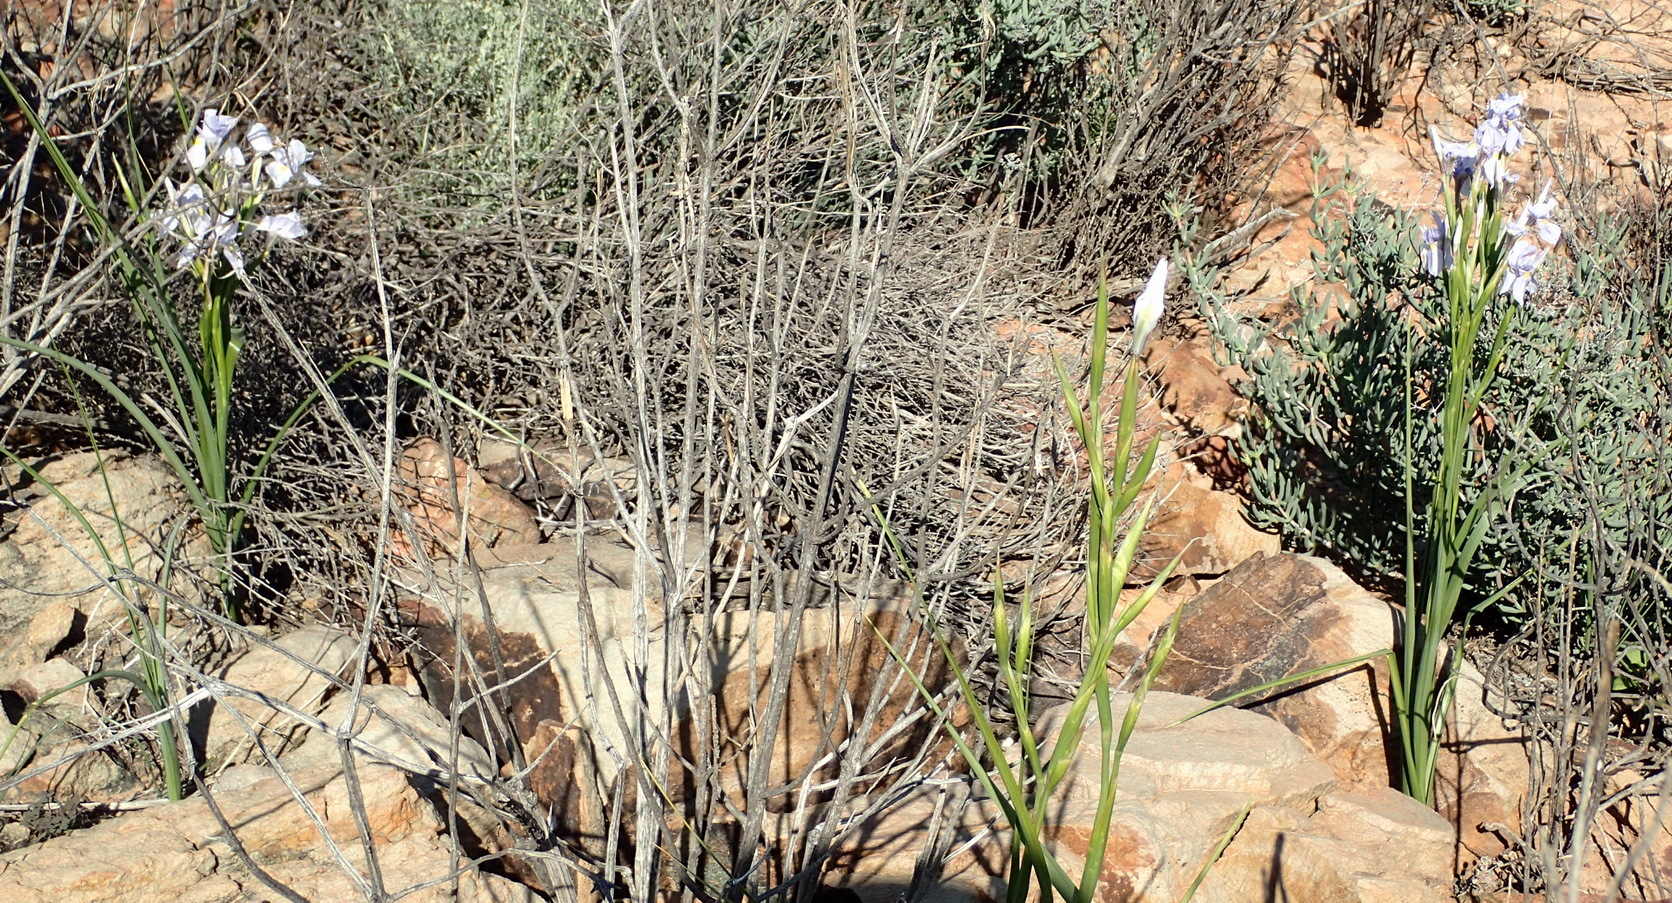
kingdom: Plantae
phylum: Tracheophyta
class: Liliopsida
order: Asparagales
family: Iridaceae
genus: Moraea
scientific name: Moraea polystachya
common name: Blue-tulip
